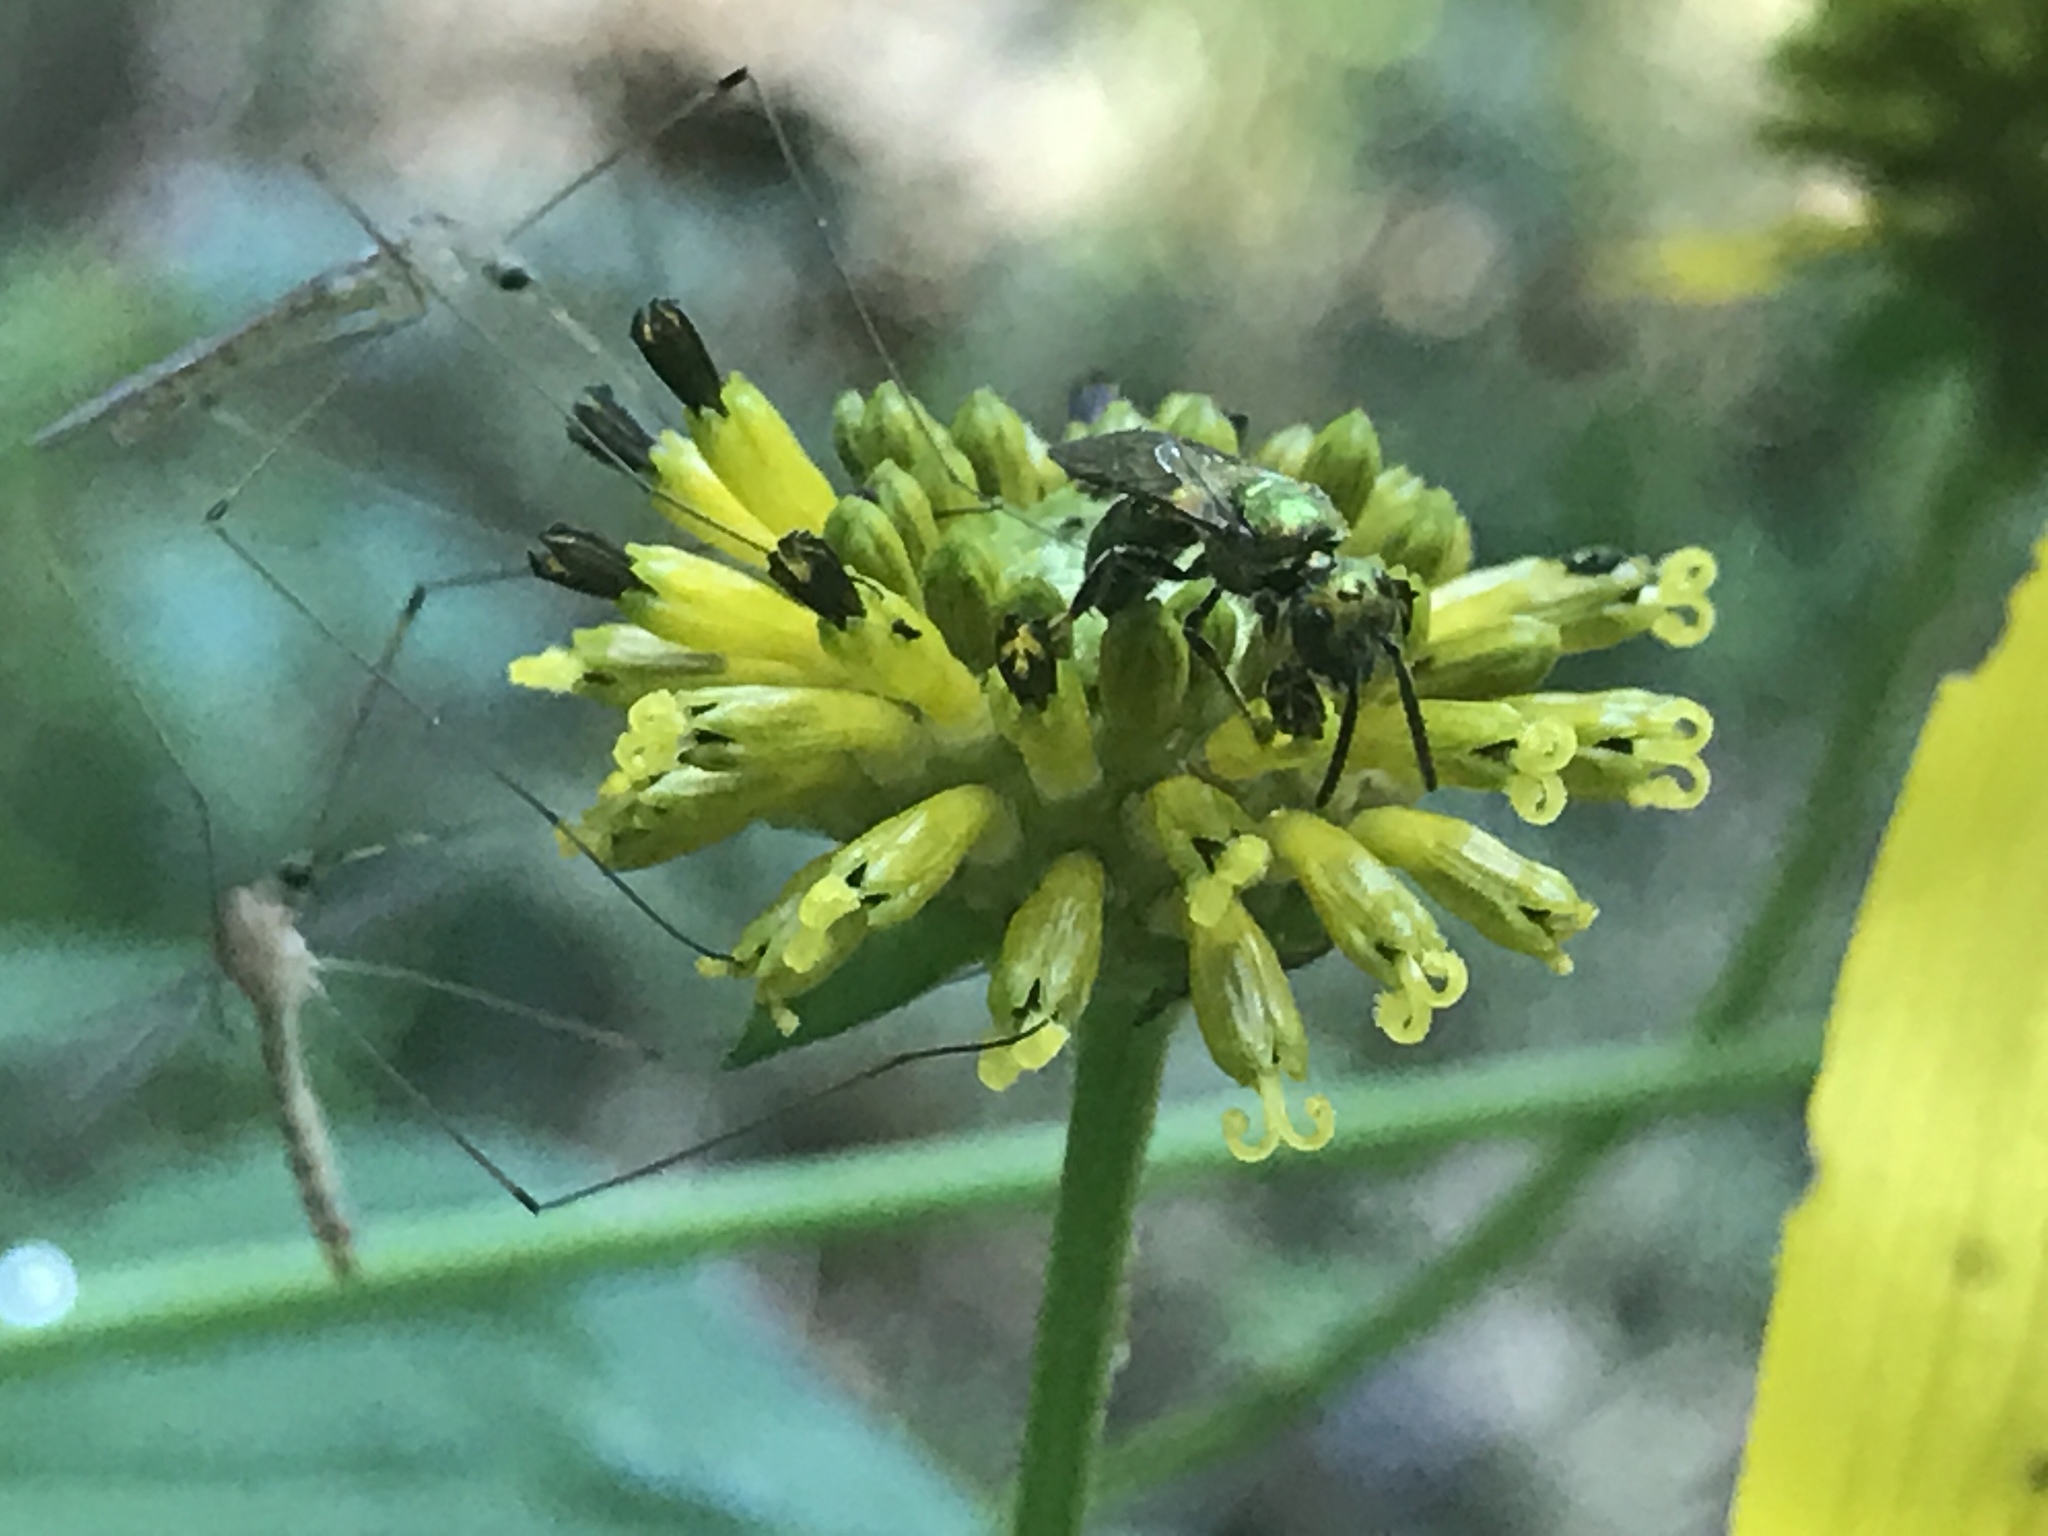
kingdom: Animalia
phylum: Arthropoda
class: Insecta
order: Hymenoptera
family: Halictidae
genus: Augochlora
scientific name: Augochlora pura
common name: Pure green sweat bee
